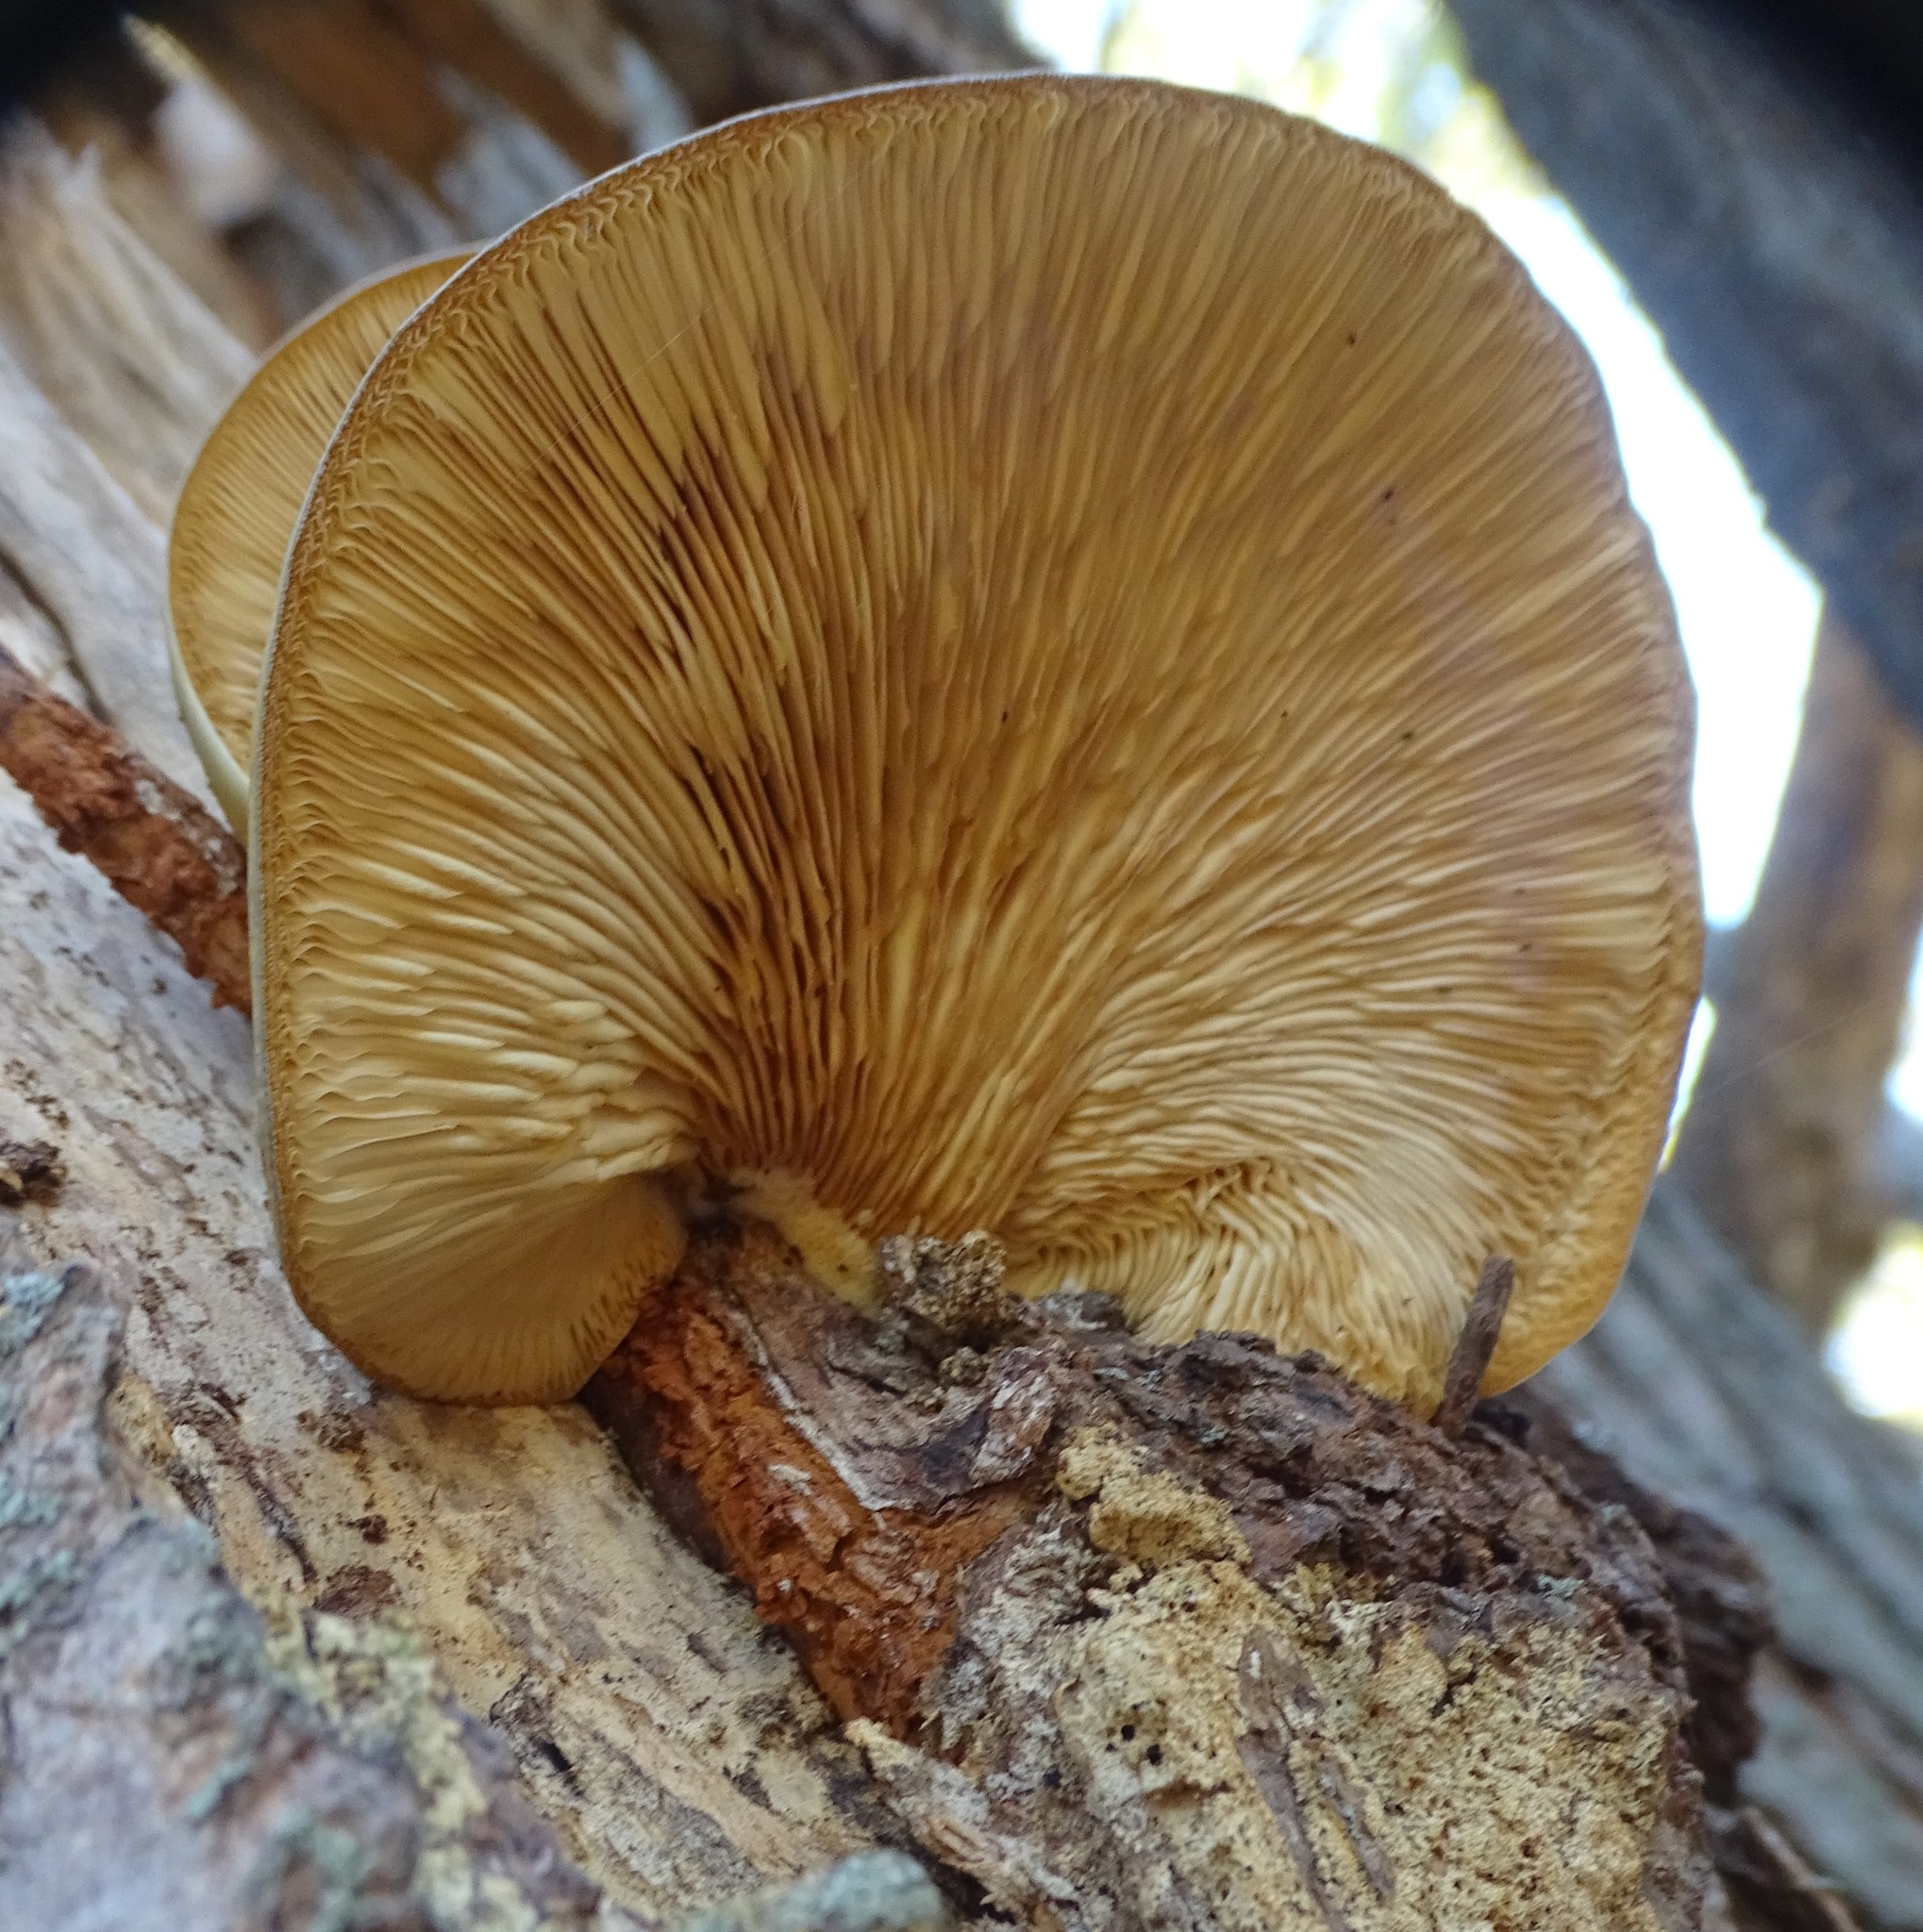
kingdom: Fungi
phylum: Basidiomycota
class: Agaricomycetes
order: Agaricales
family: Sarcomyxaceae
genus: Sarcomyxa
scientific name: Sarcomyxa serotina
